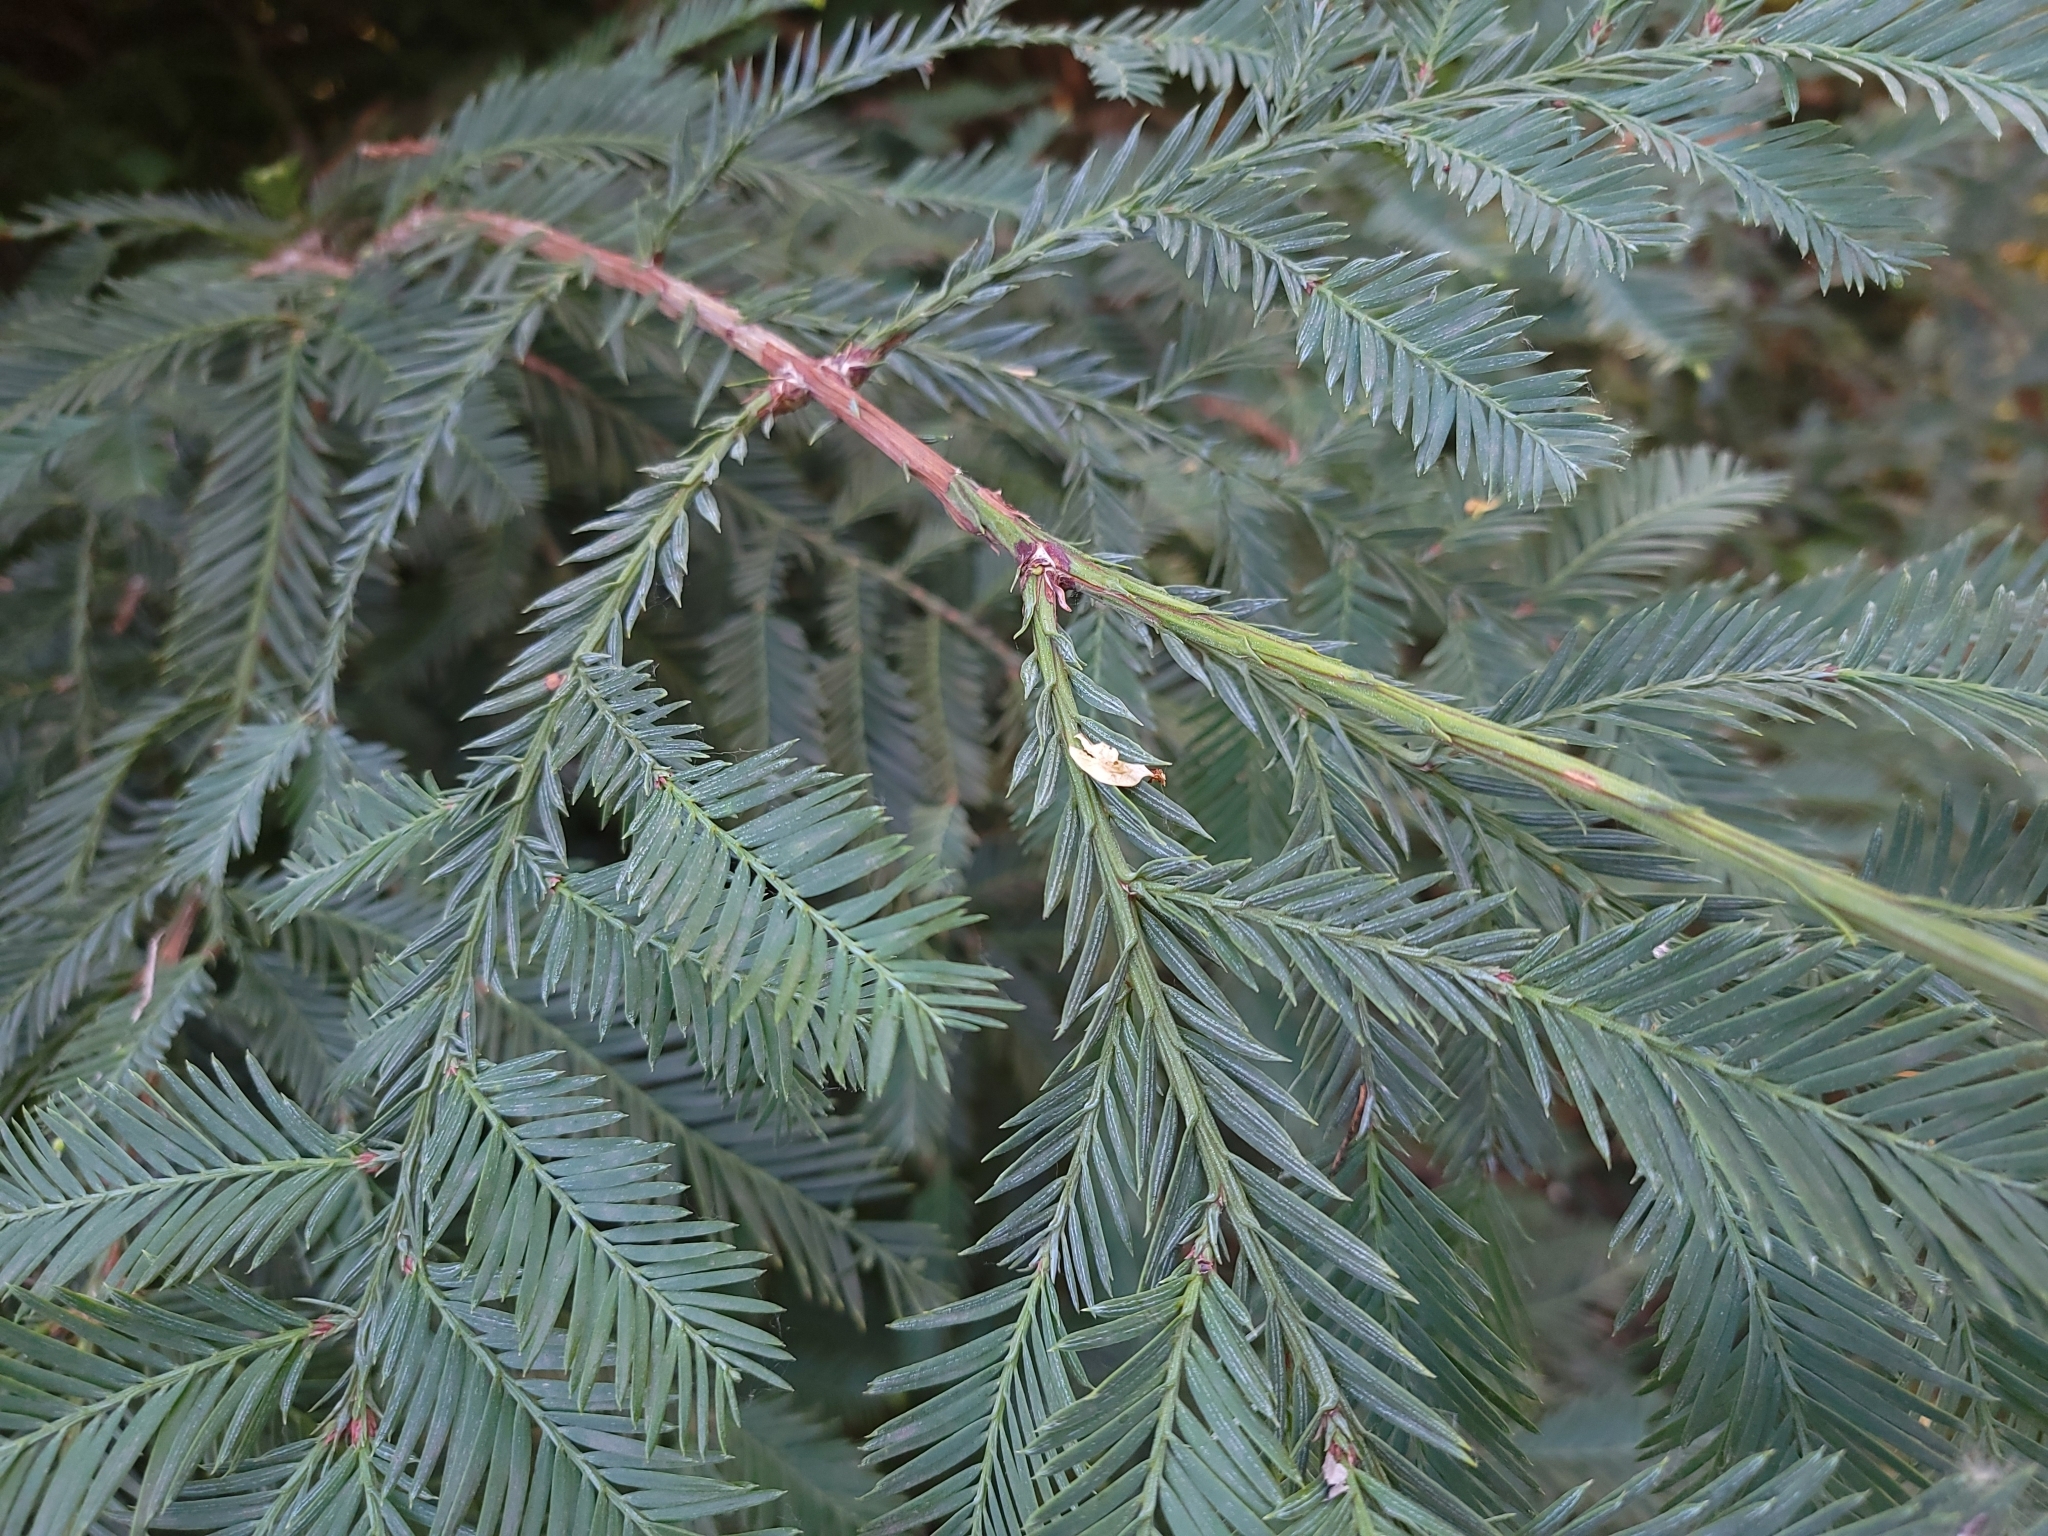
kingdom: Plantae
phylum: Tracheophyta
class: Pinopsida
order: Pinales
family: Cupressaceae
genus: Sequoia
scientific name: Sequoia sempervirens
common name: Coast redwood
